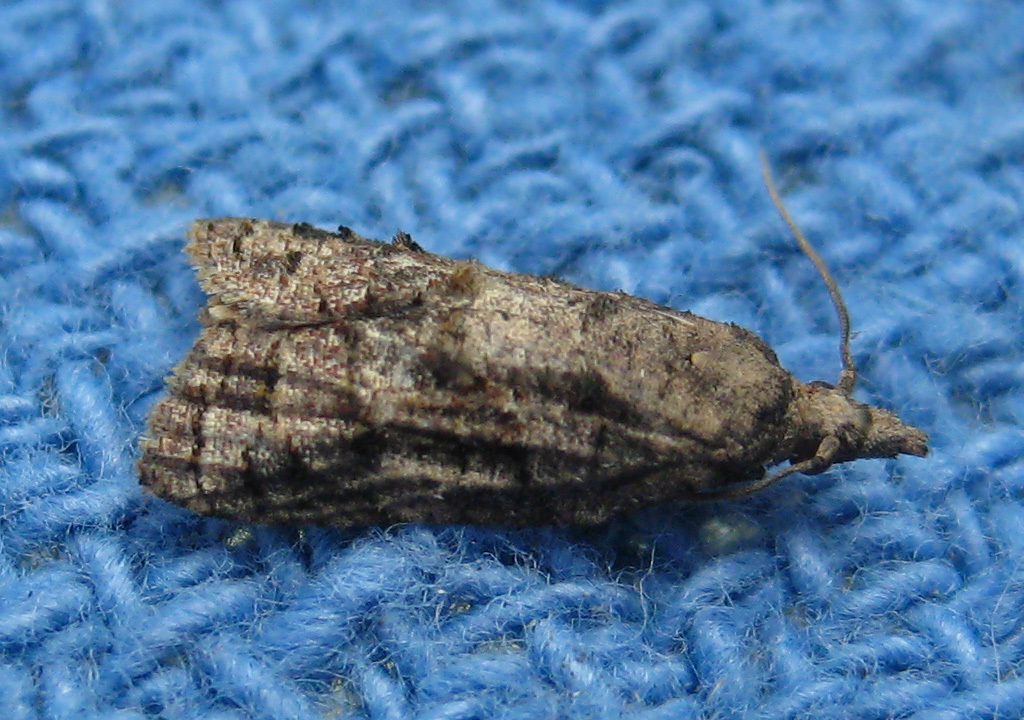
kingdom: Animalia
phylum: Arthropoda
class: Insecta
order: Lepidoptera
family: Tortricidae
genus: Platynota
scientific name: Platynota idaeusalis
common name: Tufted apple bud moth
